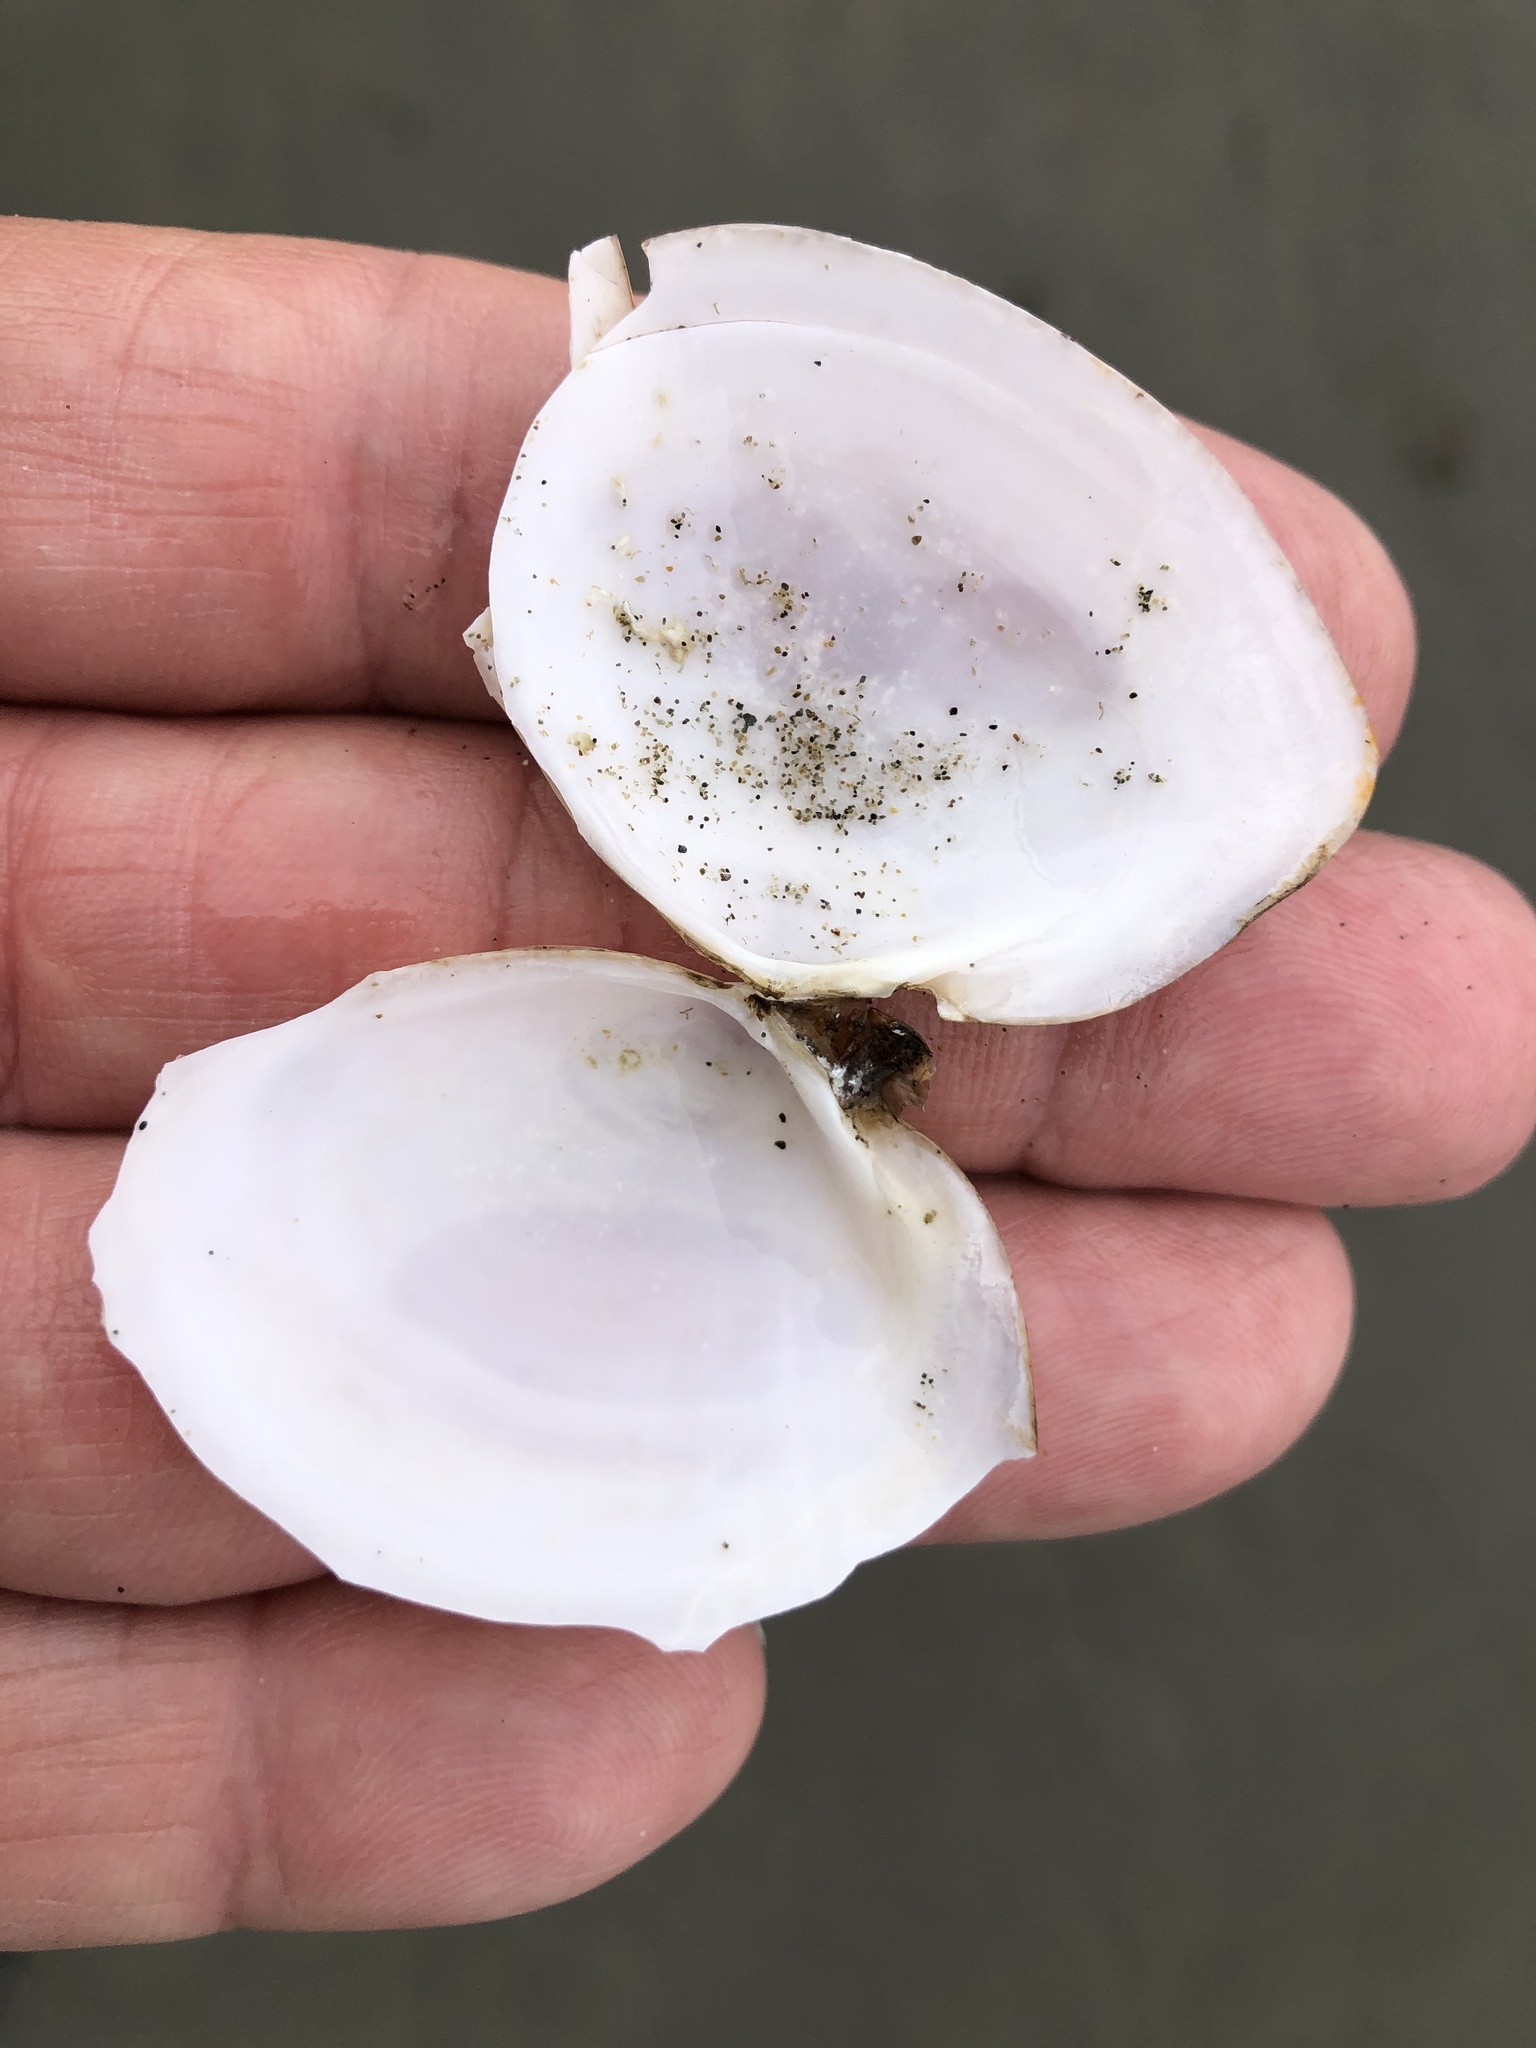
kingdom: Animalia
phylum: Mollusca
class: Bivalvia
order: Cardiida
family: Tellinidae
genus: Rexithaerus
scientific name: Rexithaerus secta
